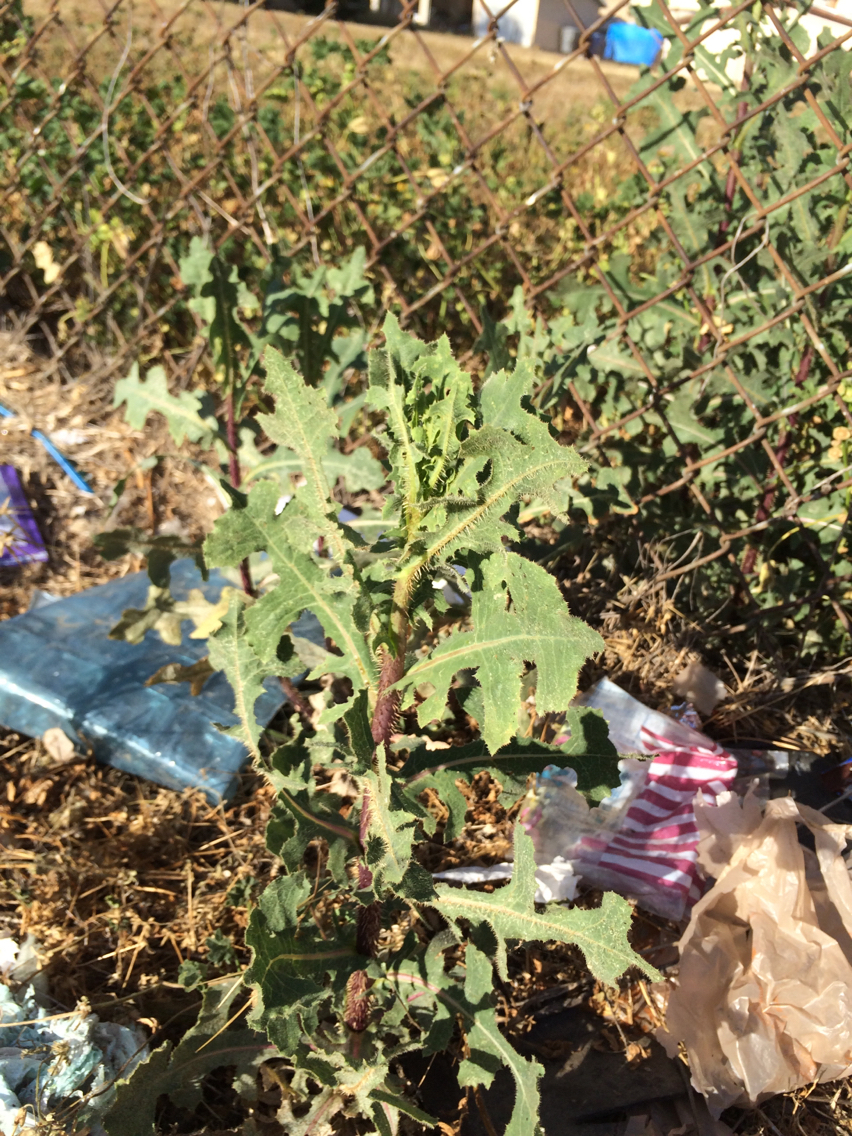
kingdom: Plantae
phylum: Tracheophyta
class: Magnoliopsida
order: Asterales
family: Asteraceae
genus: Lactuca
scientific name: Lactuca serriola
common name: Prickly lettuce
